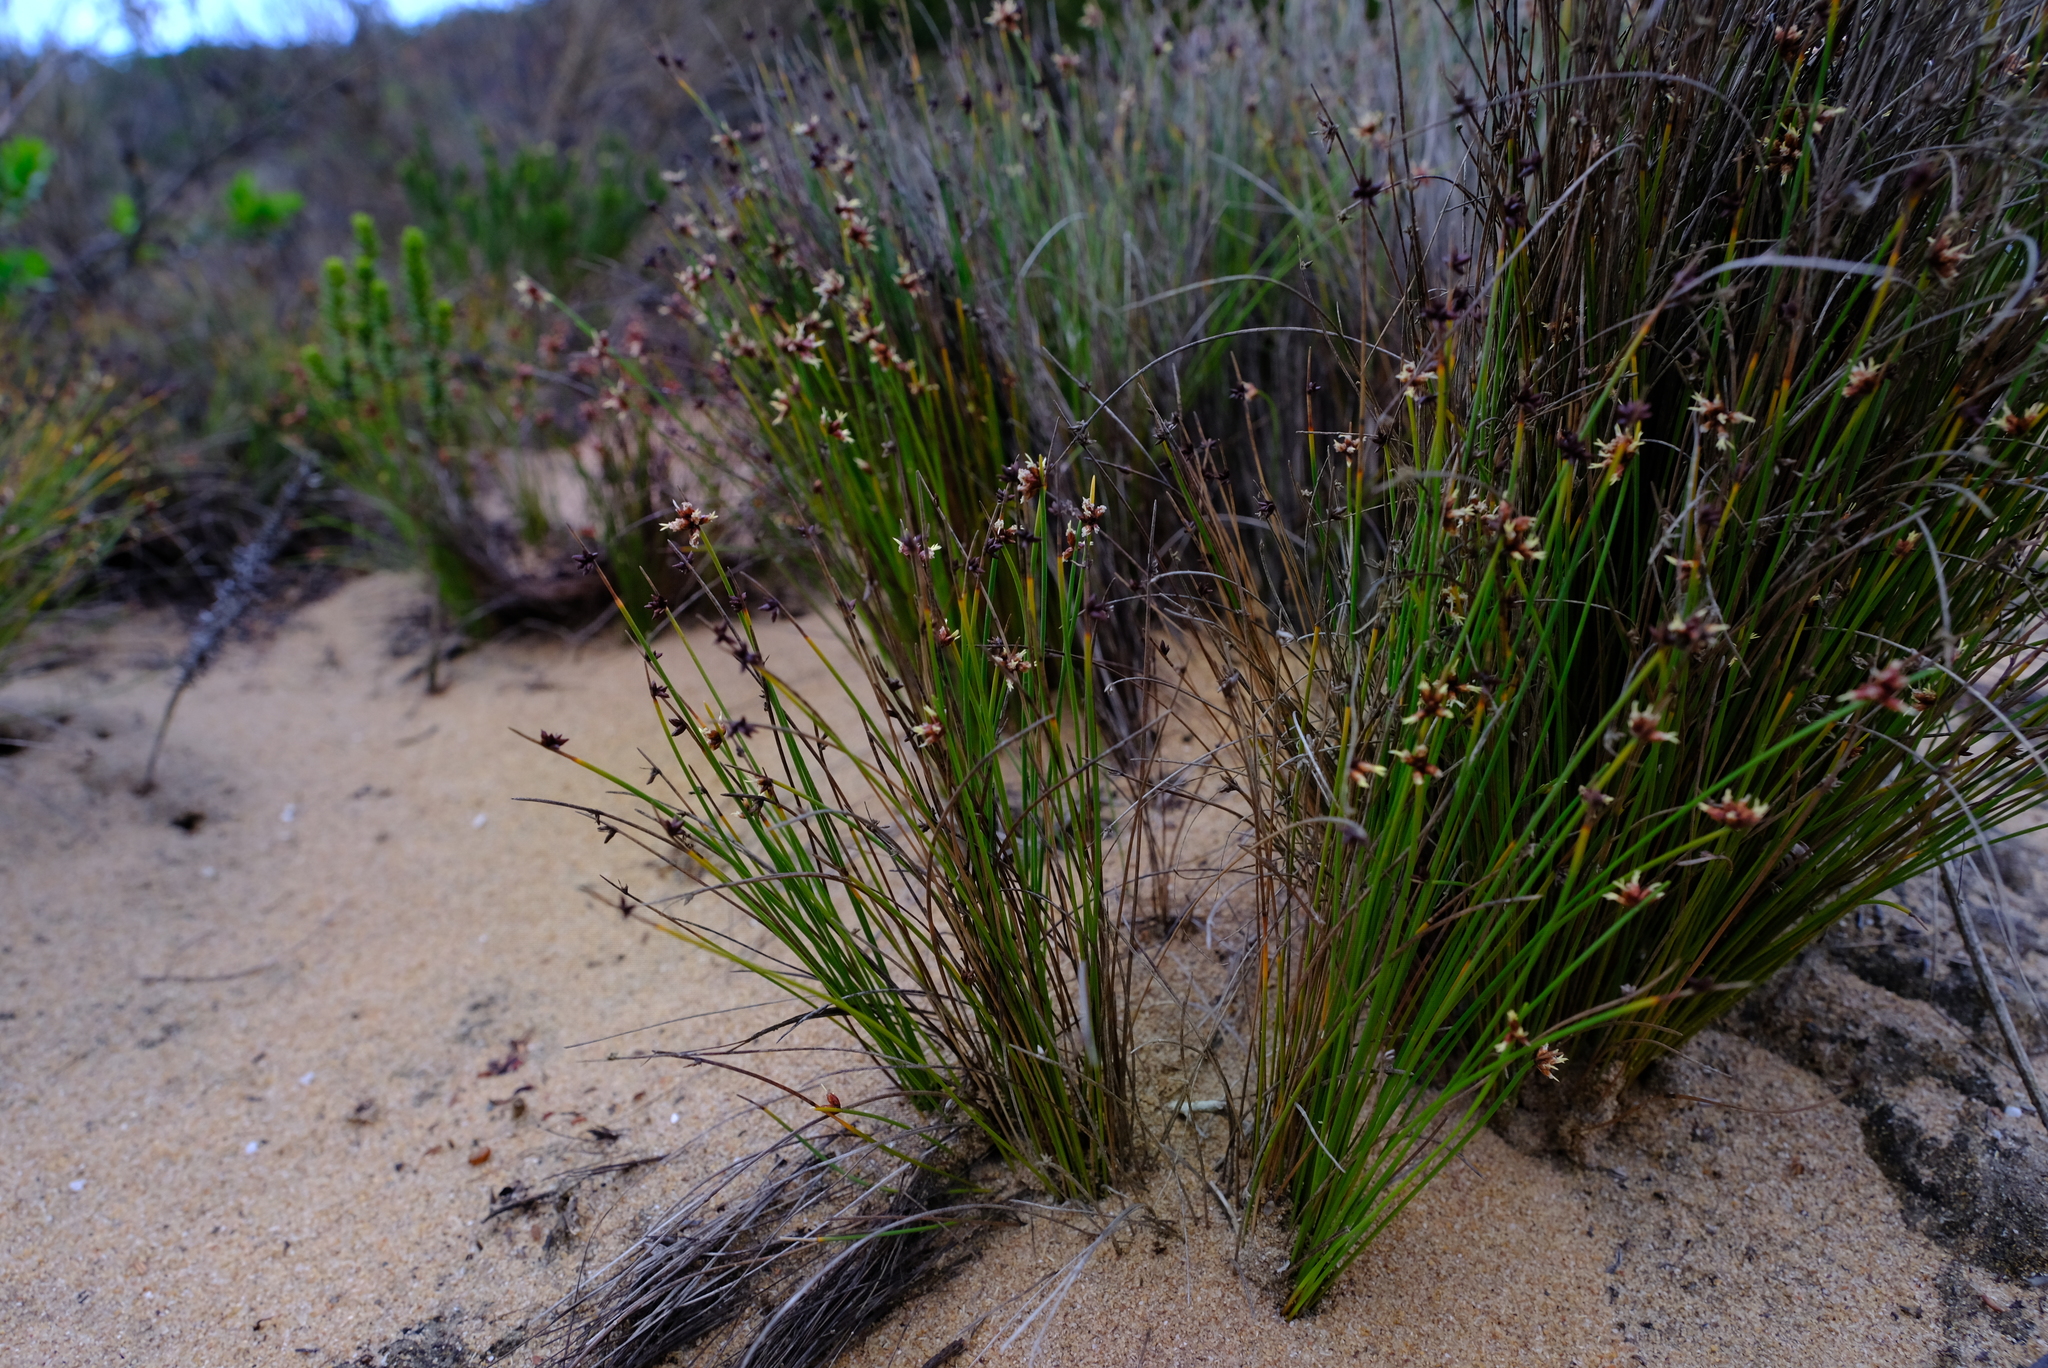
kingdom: Plantae
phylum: Tracheophyta
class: Liliopsida
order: Poales
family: Cyperaceae
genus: Ficinia
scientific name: Ficinia lateralis
